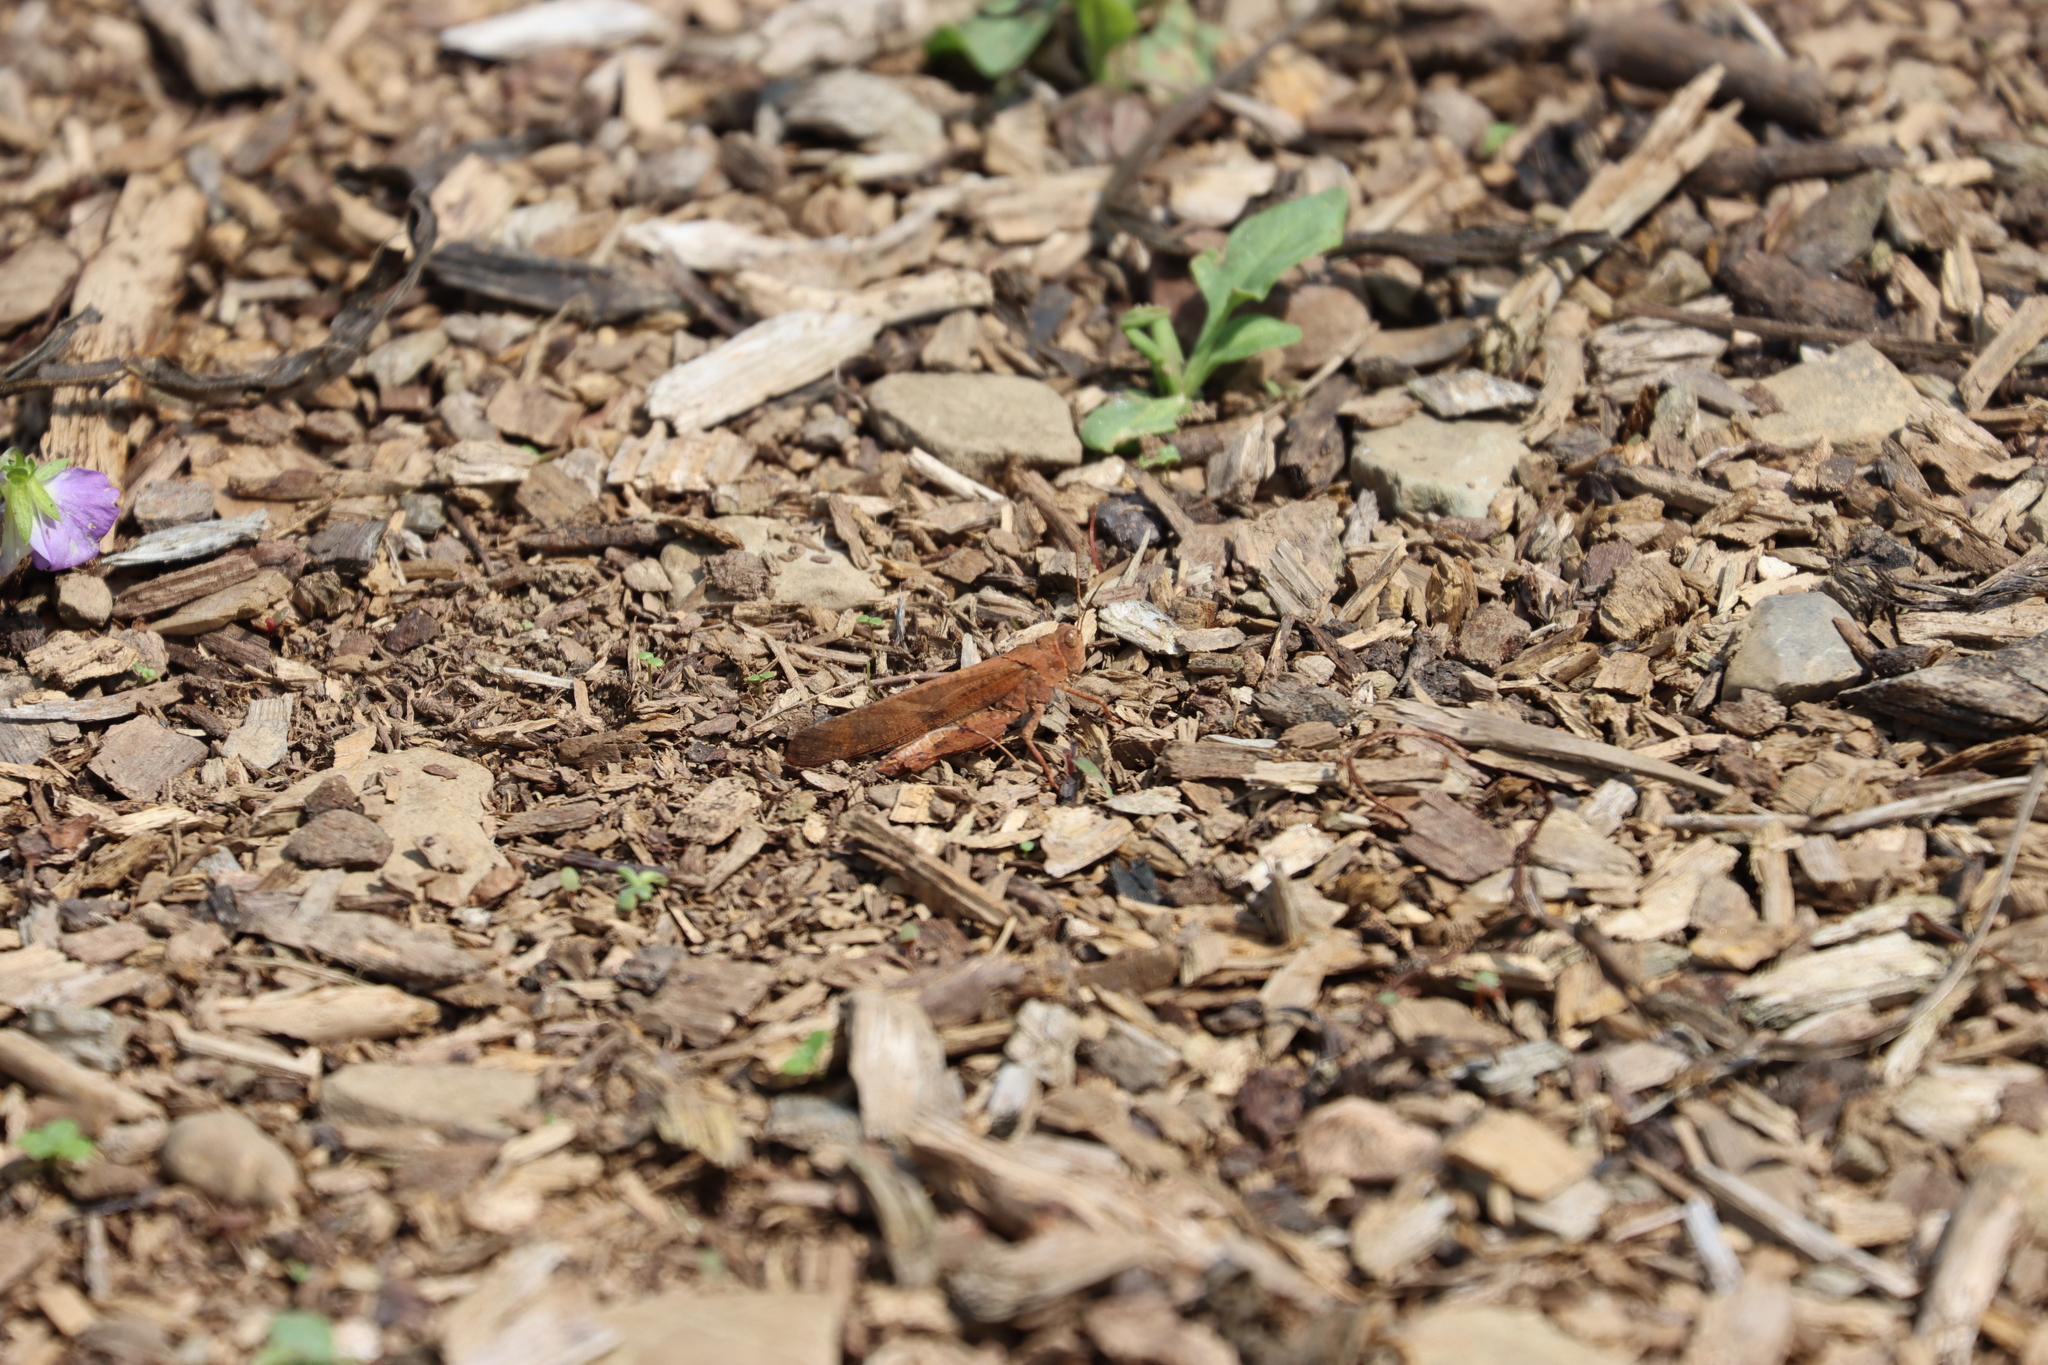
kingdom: Animalia
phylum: Arthropoda
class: Insecta
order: Orthoptera
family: Acrididae
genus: Dissosteira
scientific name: Dissosteira carolina
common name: Carolina grasshopper
